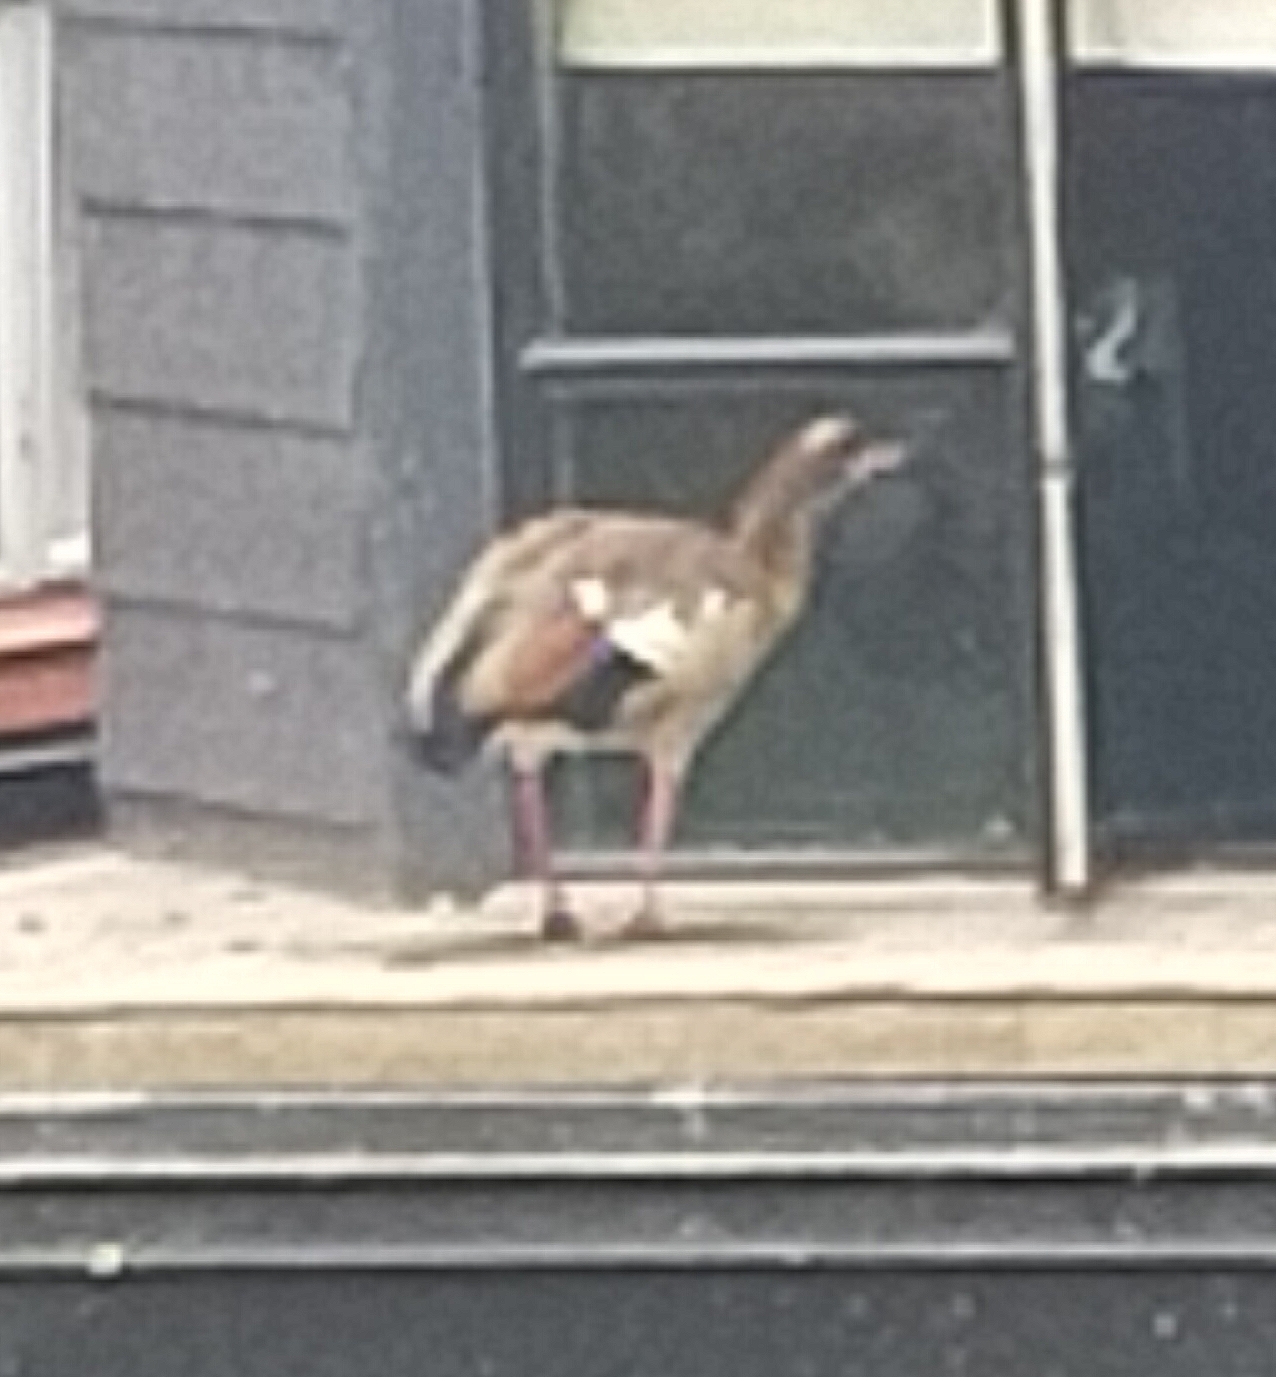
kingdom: Animalia
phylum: Chordata
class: Aves
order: Anseriformes
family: Anatidae
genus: Alopochen
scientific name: Alopochen aegyptiaca
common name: Egyptian goose
